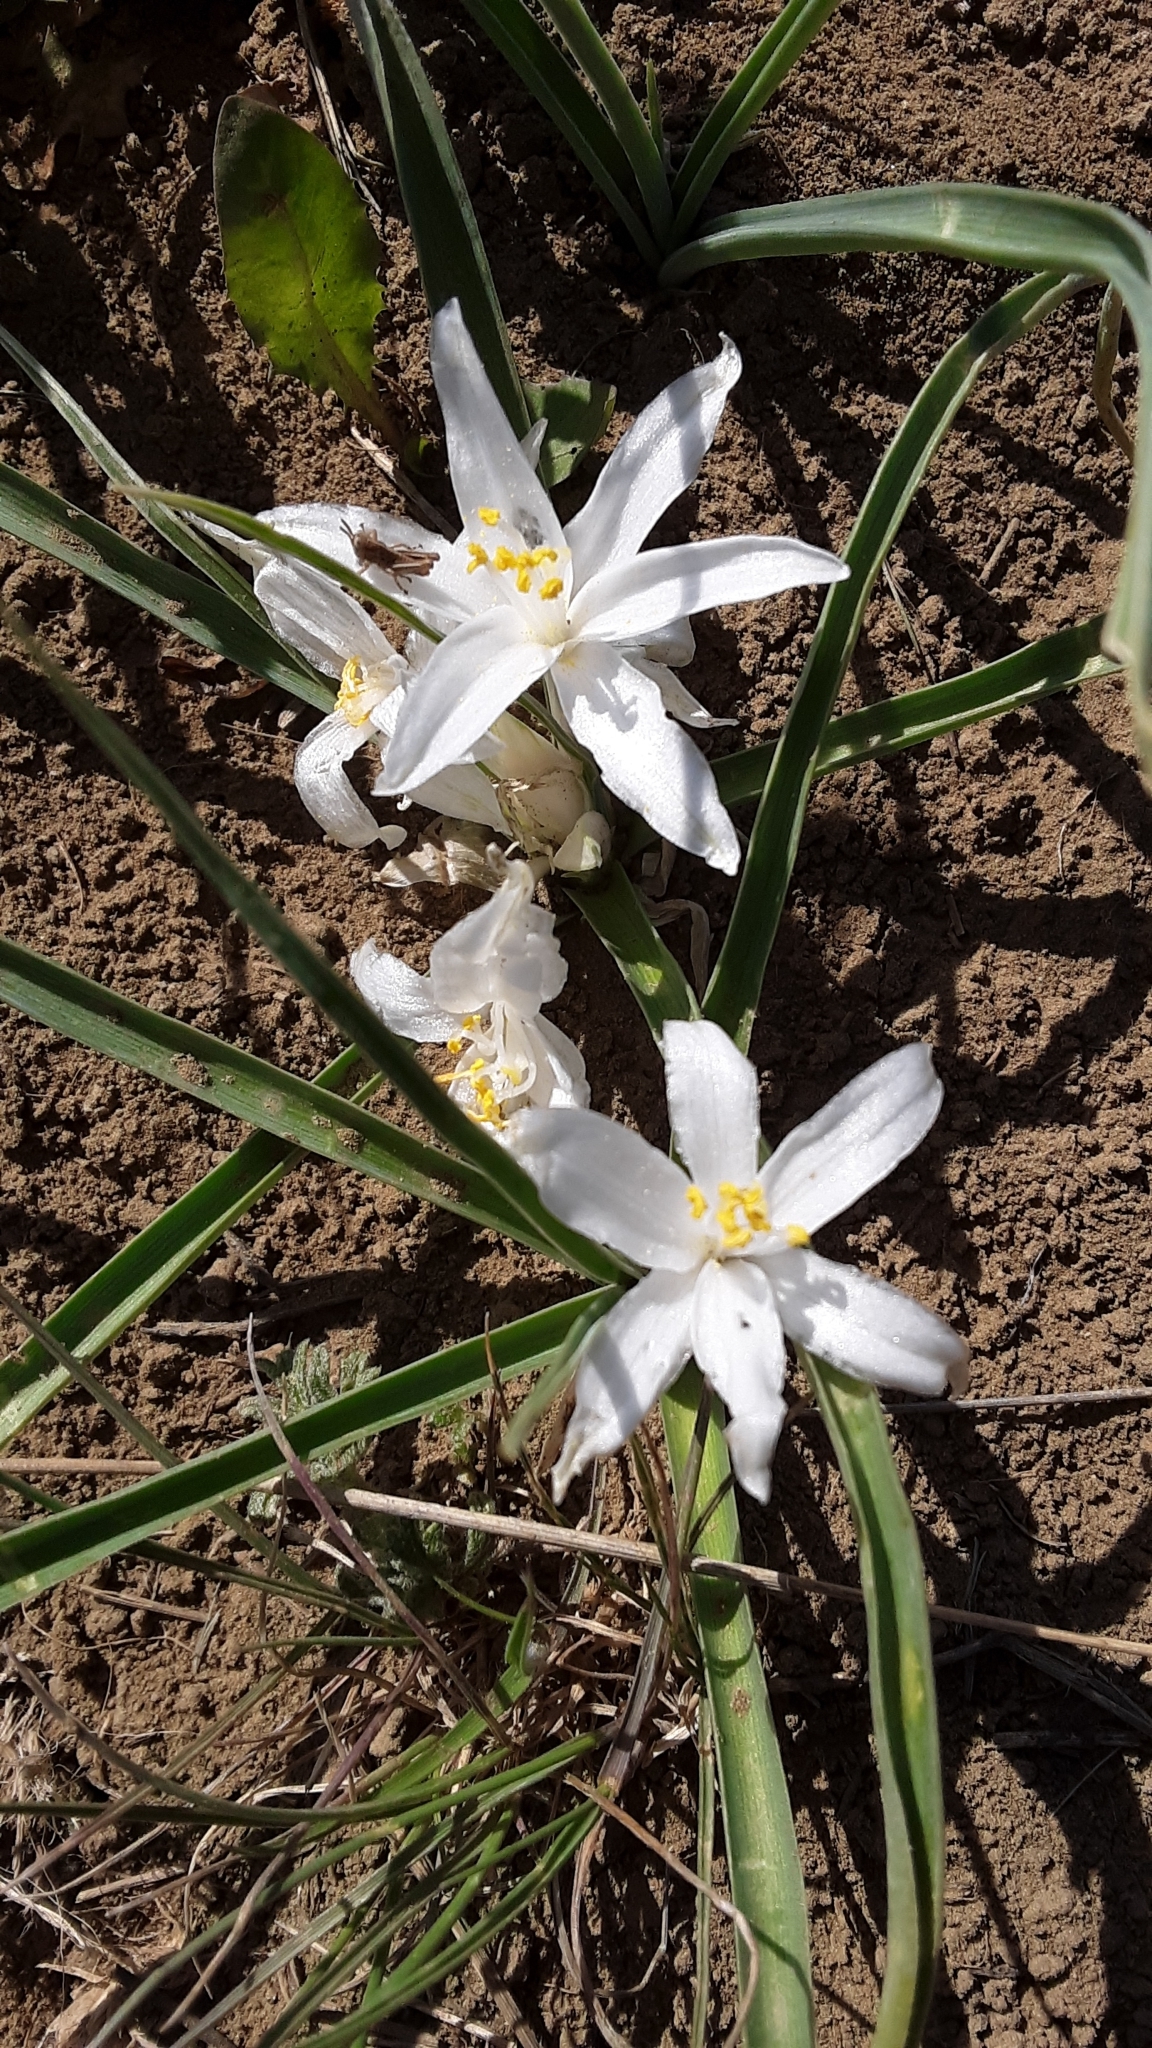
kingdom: Plantae
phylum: Tracheophyta
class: Liliopsida
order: Asparagales
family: Asparagaceae
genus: Leucocrinum
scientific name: Leucocrinum montanum
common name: Mountain-lily
